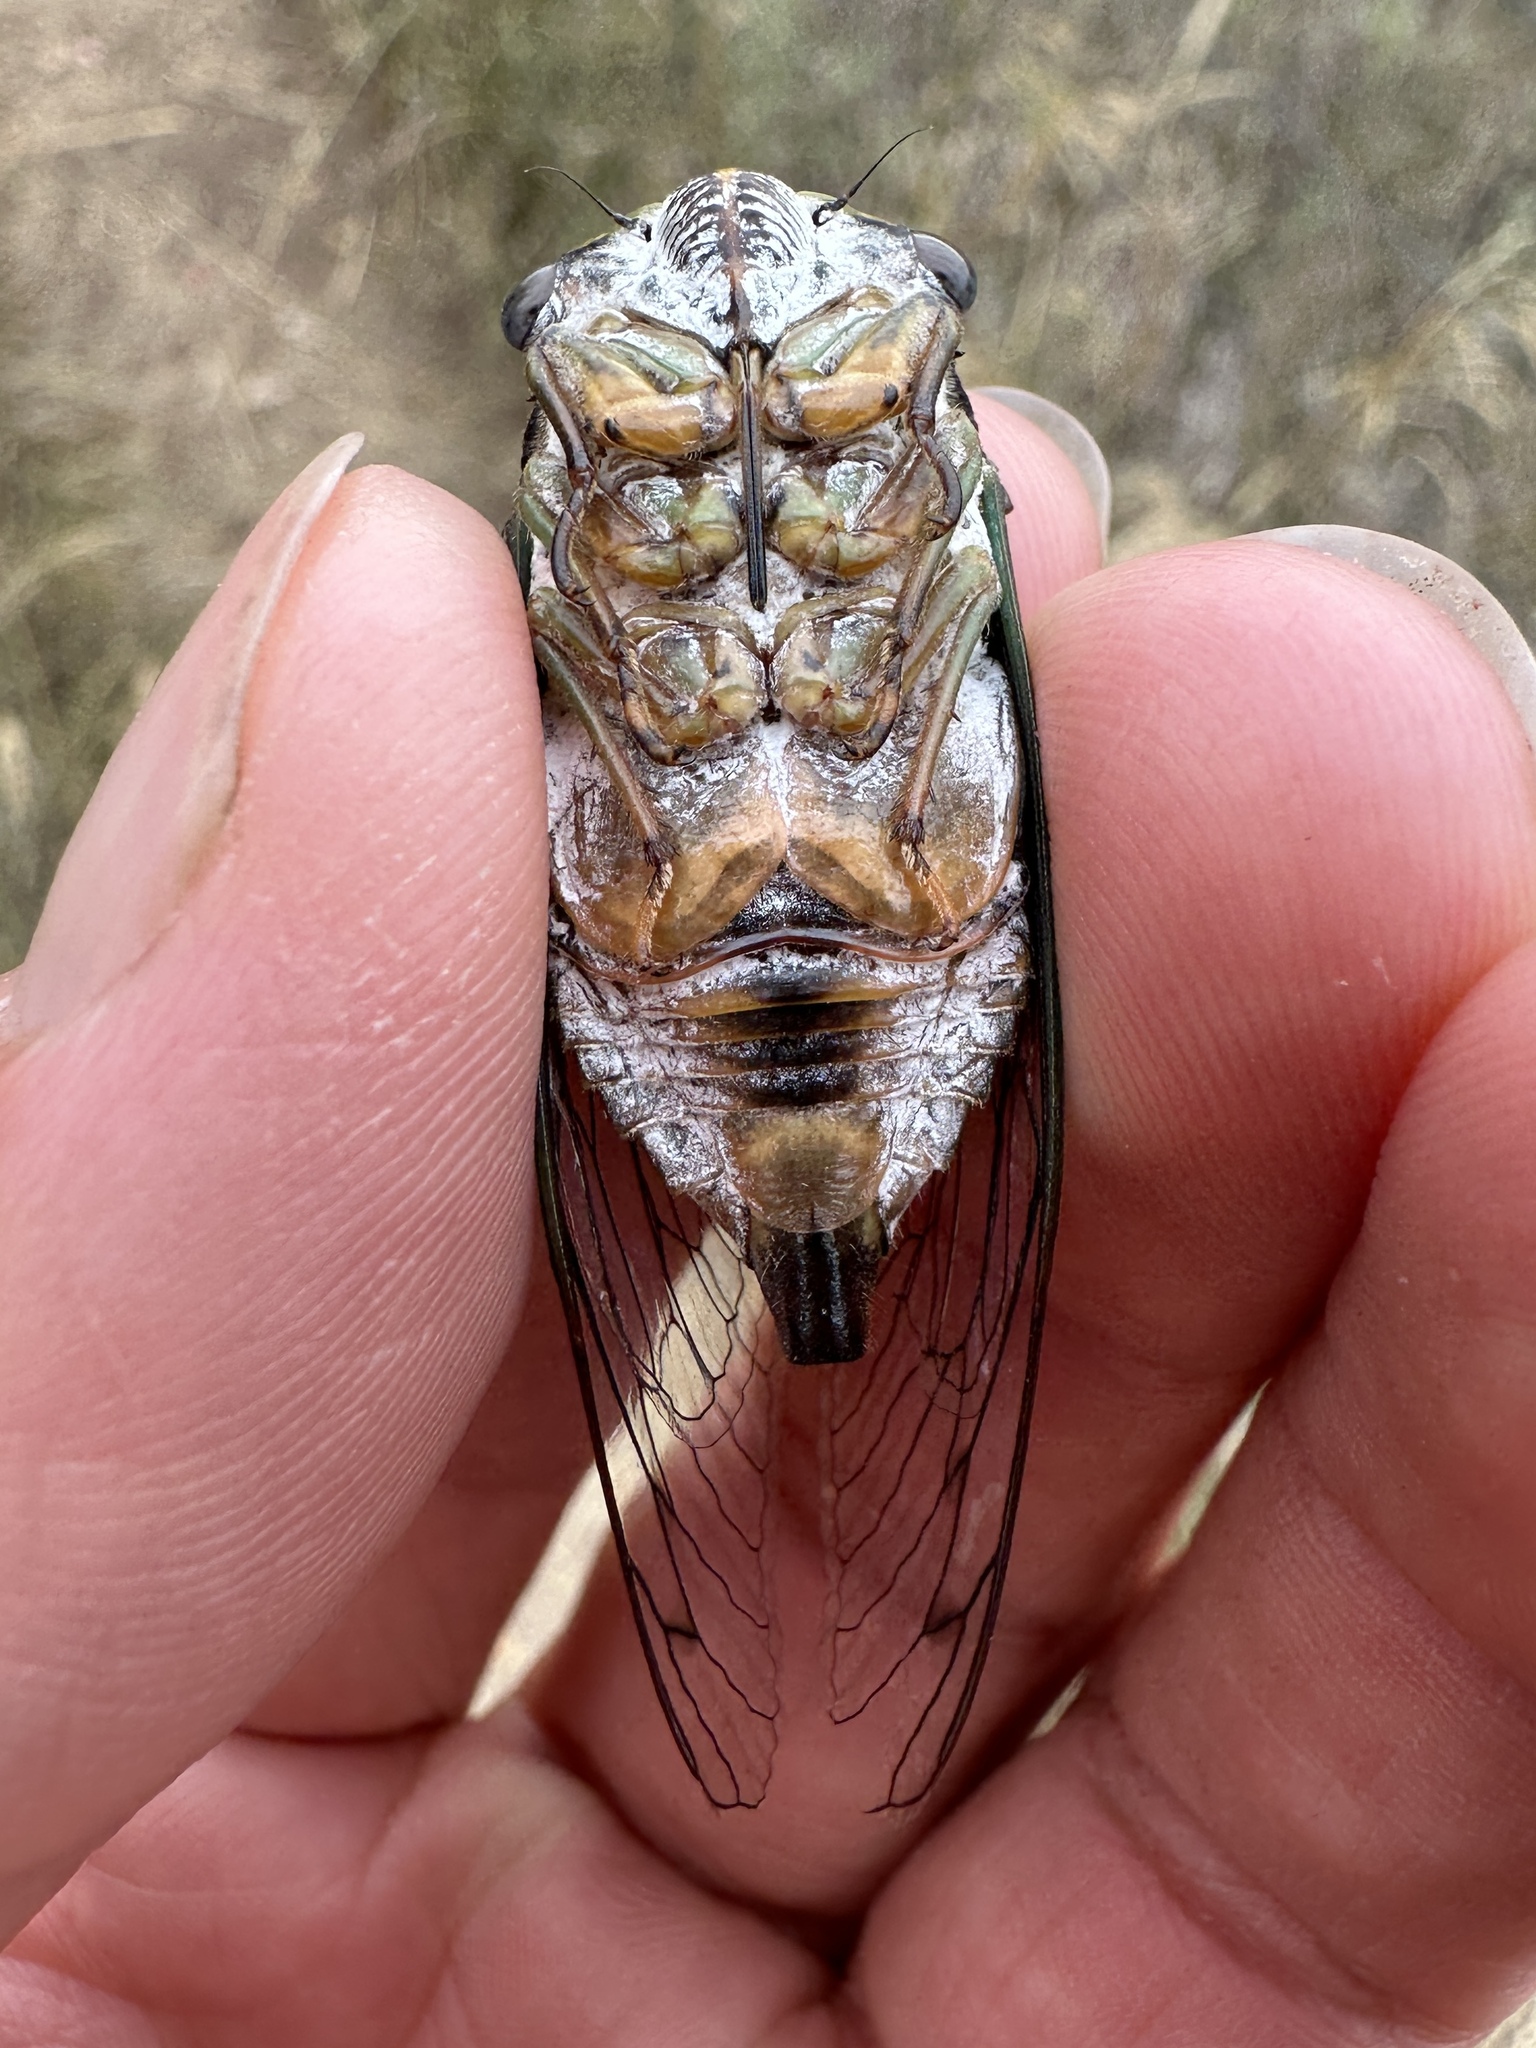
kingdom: Animalia
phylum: Arthropoda
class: Insecta
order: Hemiptera
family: Cicadidae
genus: Neotibicen
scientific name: Neotibicen pruinosus
